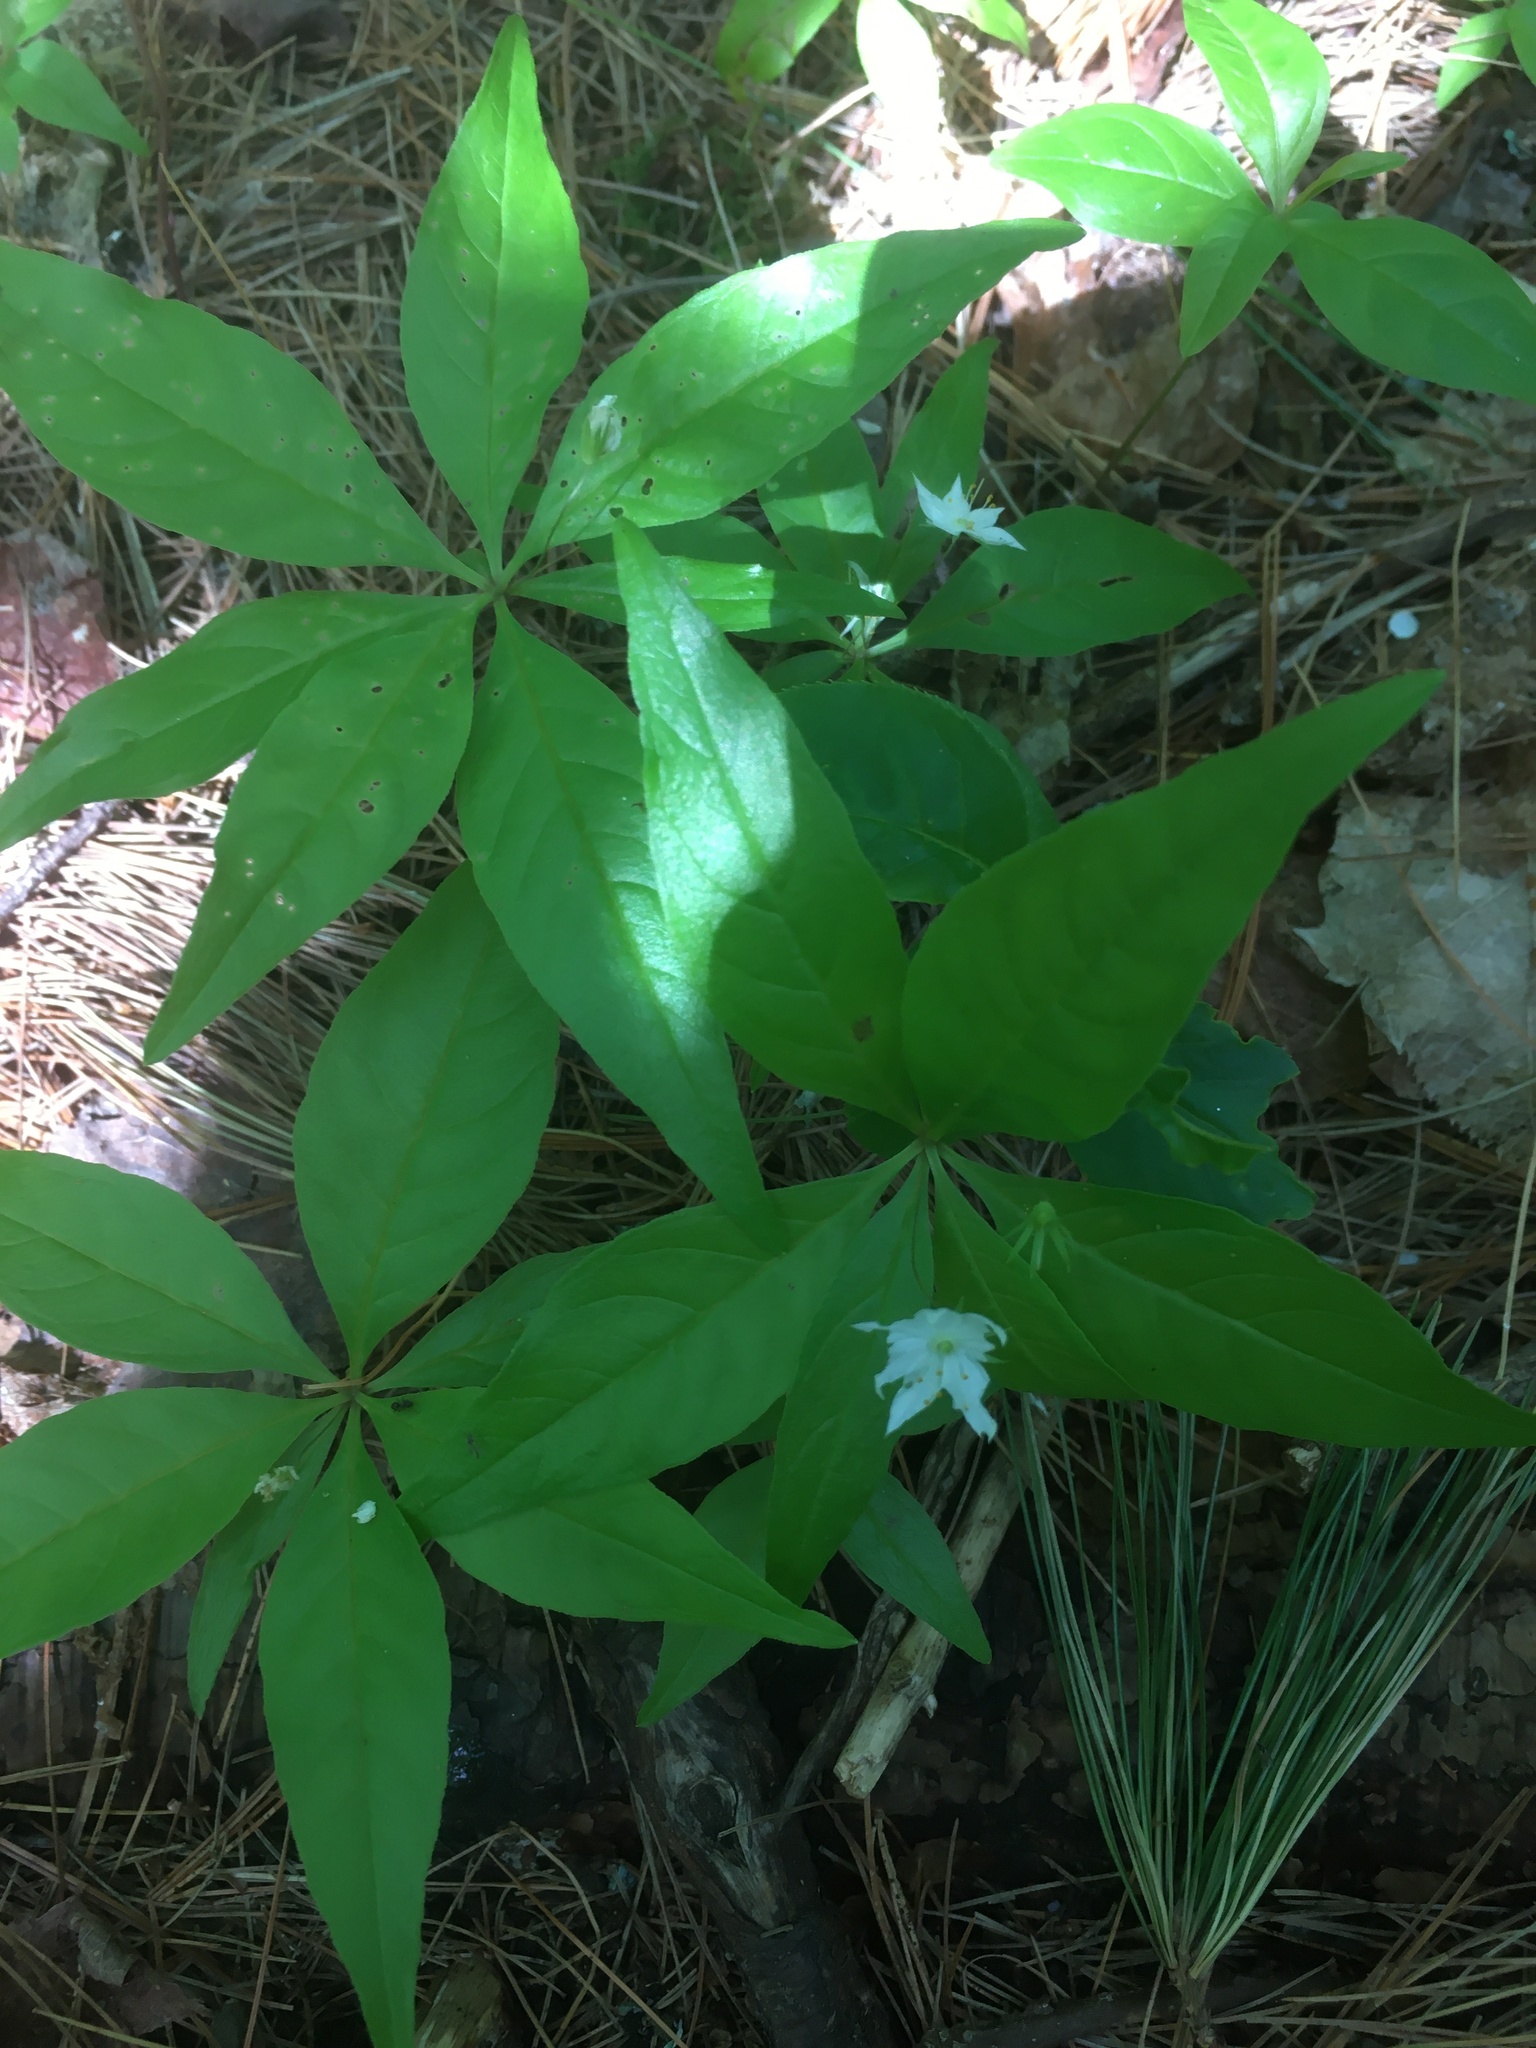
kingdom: Plantae
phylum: Tracheophyta
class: Magnoliopsida
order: Ericales
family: Primulaceae
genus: Lysimachia
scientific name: Lysimachia borealis
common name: American starflower
